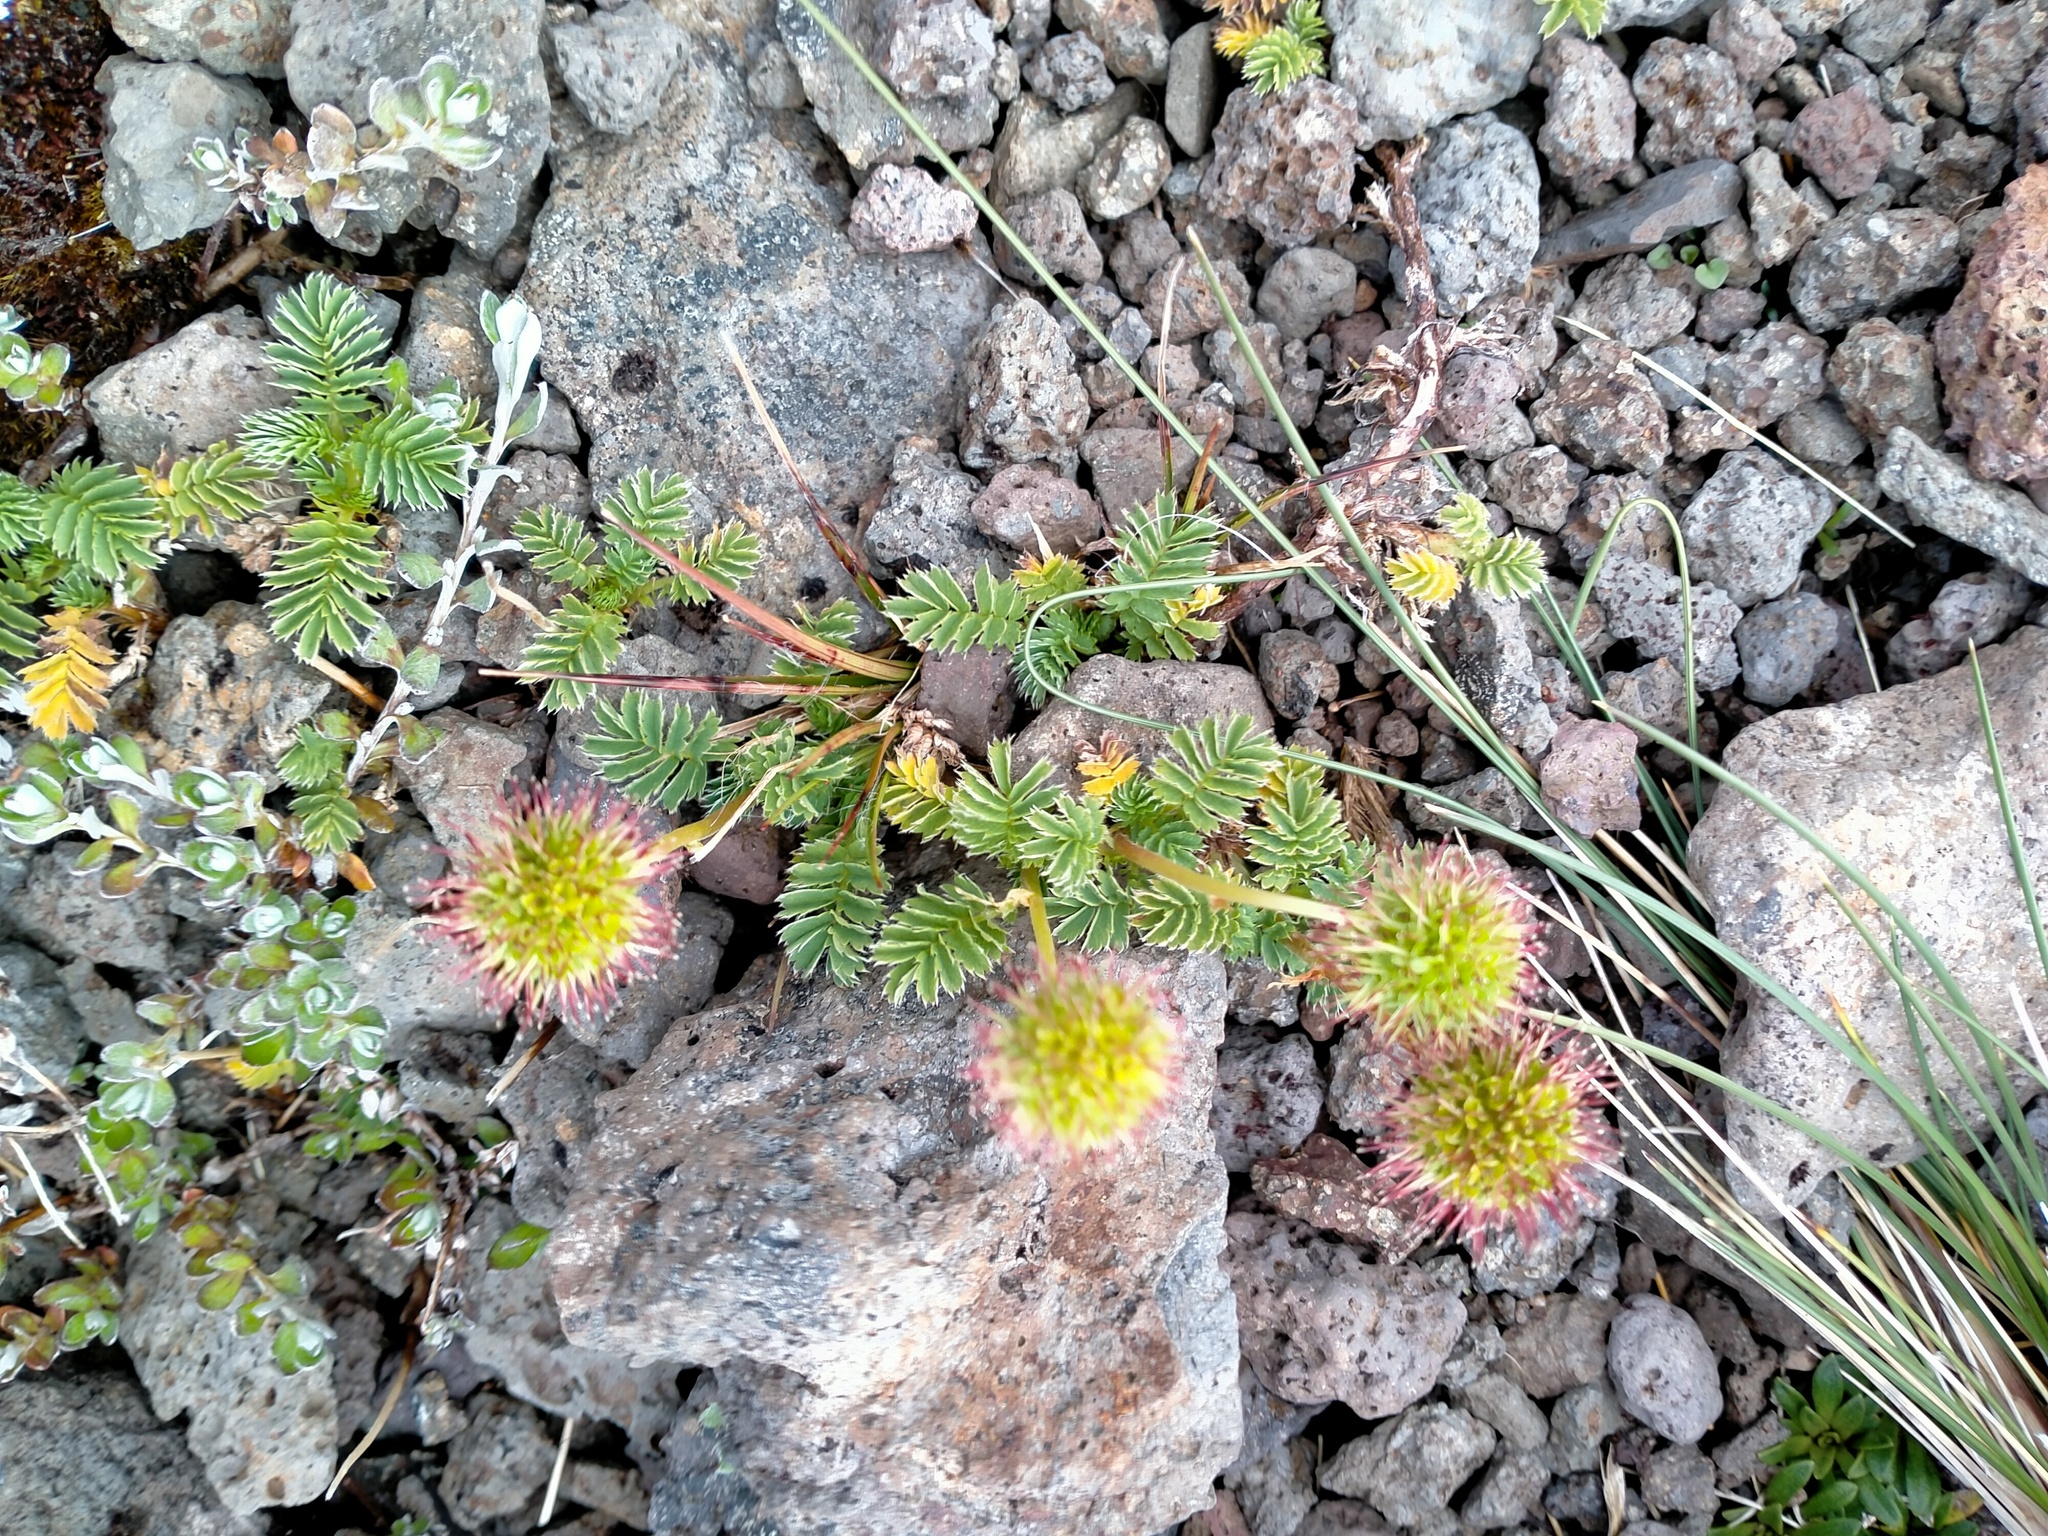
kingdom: Plantae
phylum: Tracheophyta
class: Magnoliopsida
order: Rosales
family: Rosaceae
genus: Acaena
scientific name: Acaena minor
